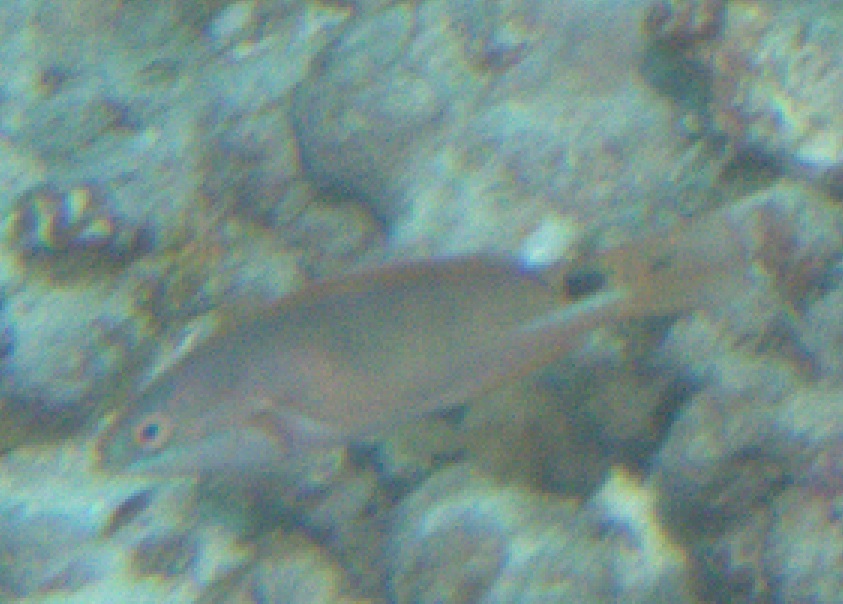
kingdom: Animalia
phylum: Chordata
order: Perciformes
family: Labridae
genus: Cirrhilabrus
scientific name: Cirrhilabrus exquisitus
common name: Exquisite wrasse
